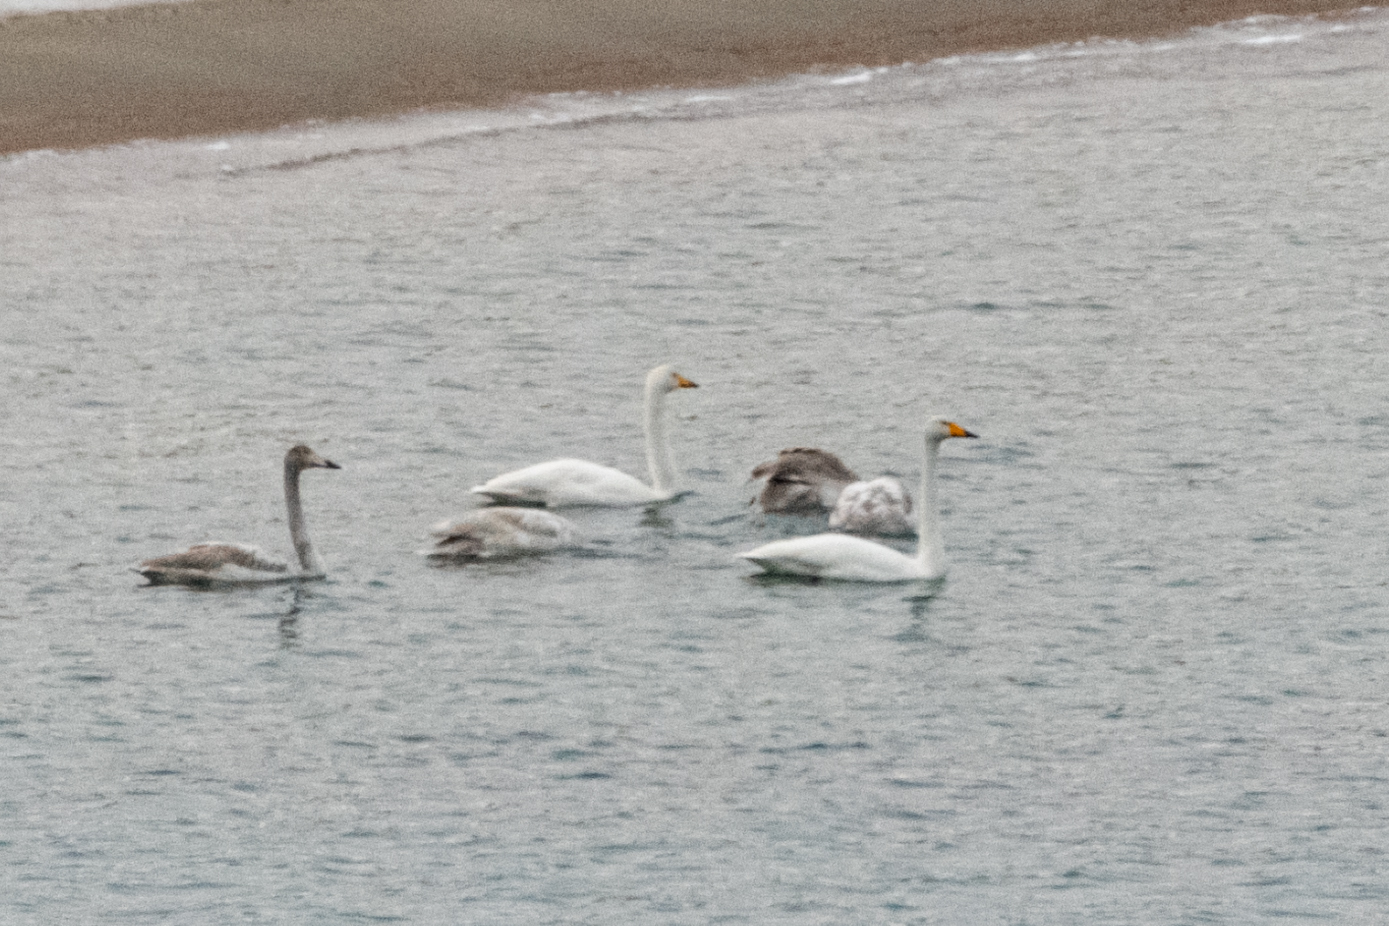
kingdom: Animalia
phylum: Chordata
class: Aves
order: Anseriformes
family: Anatidae
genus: Cygnus
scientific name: Cygnus cygnus
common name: Whooper swan
